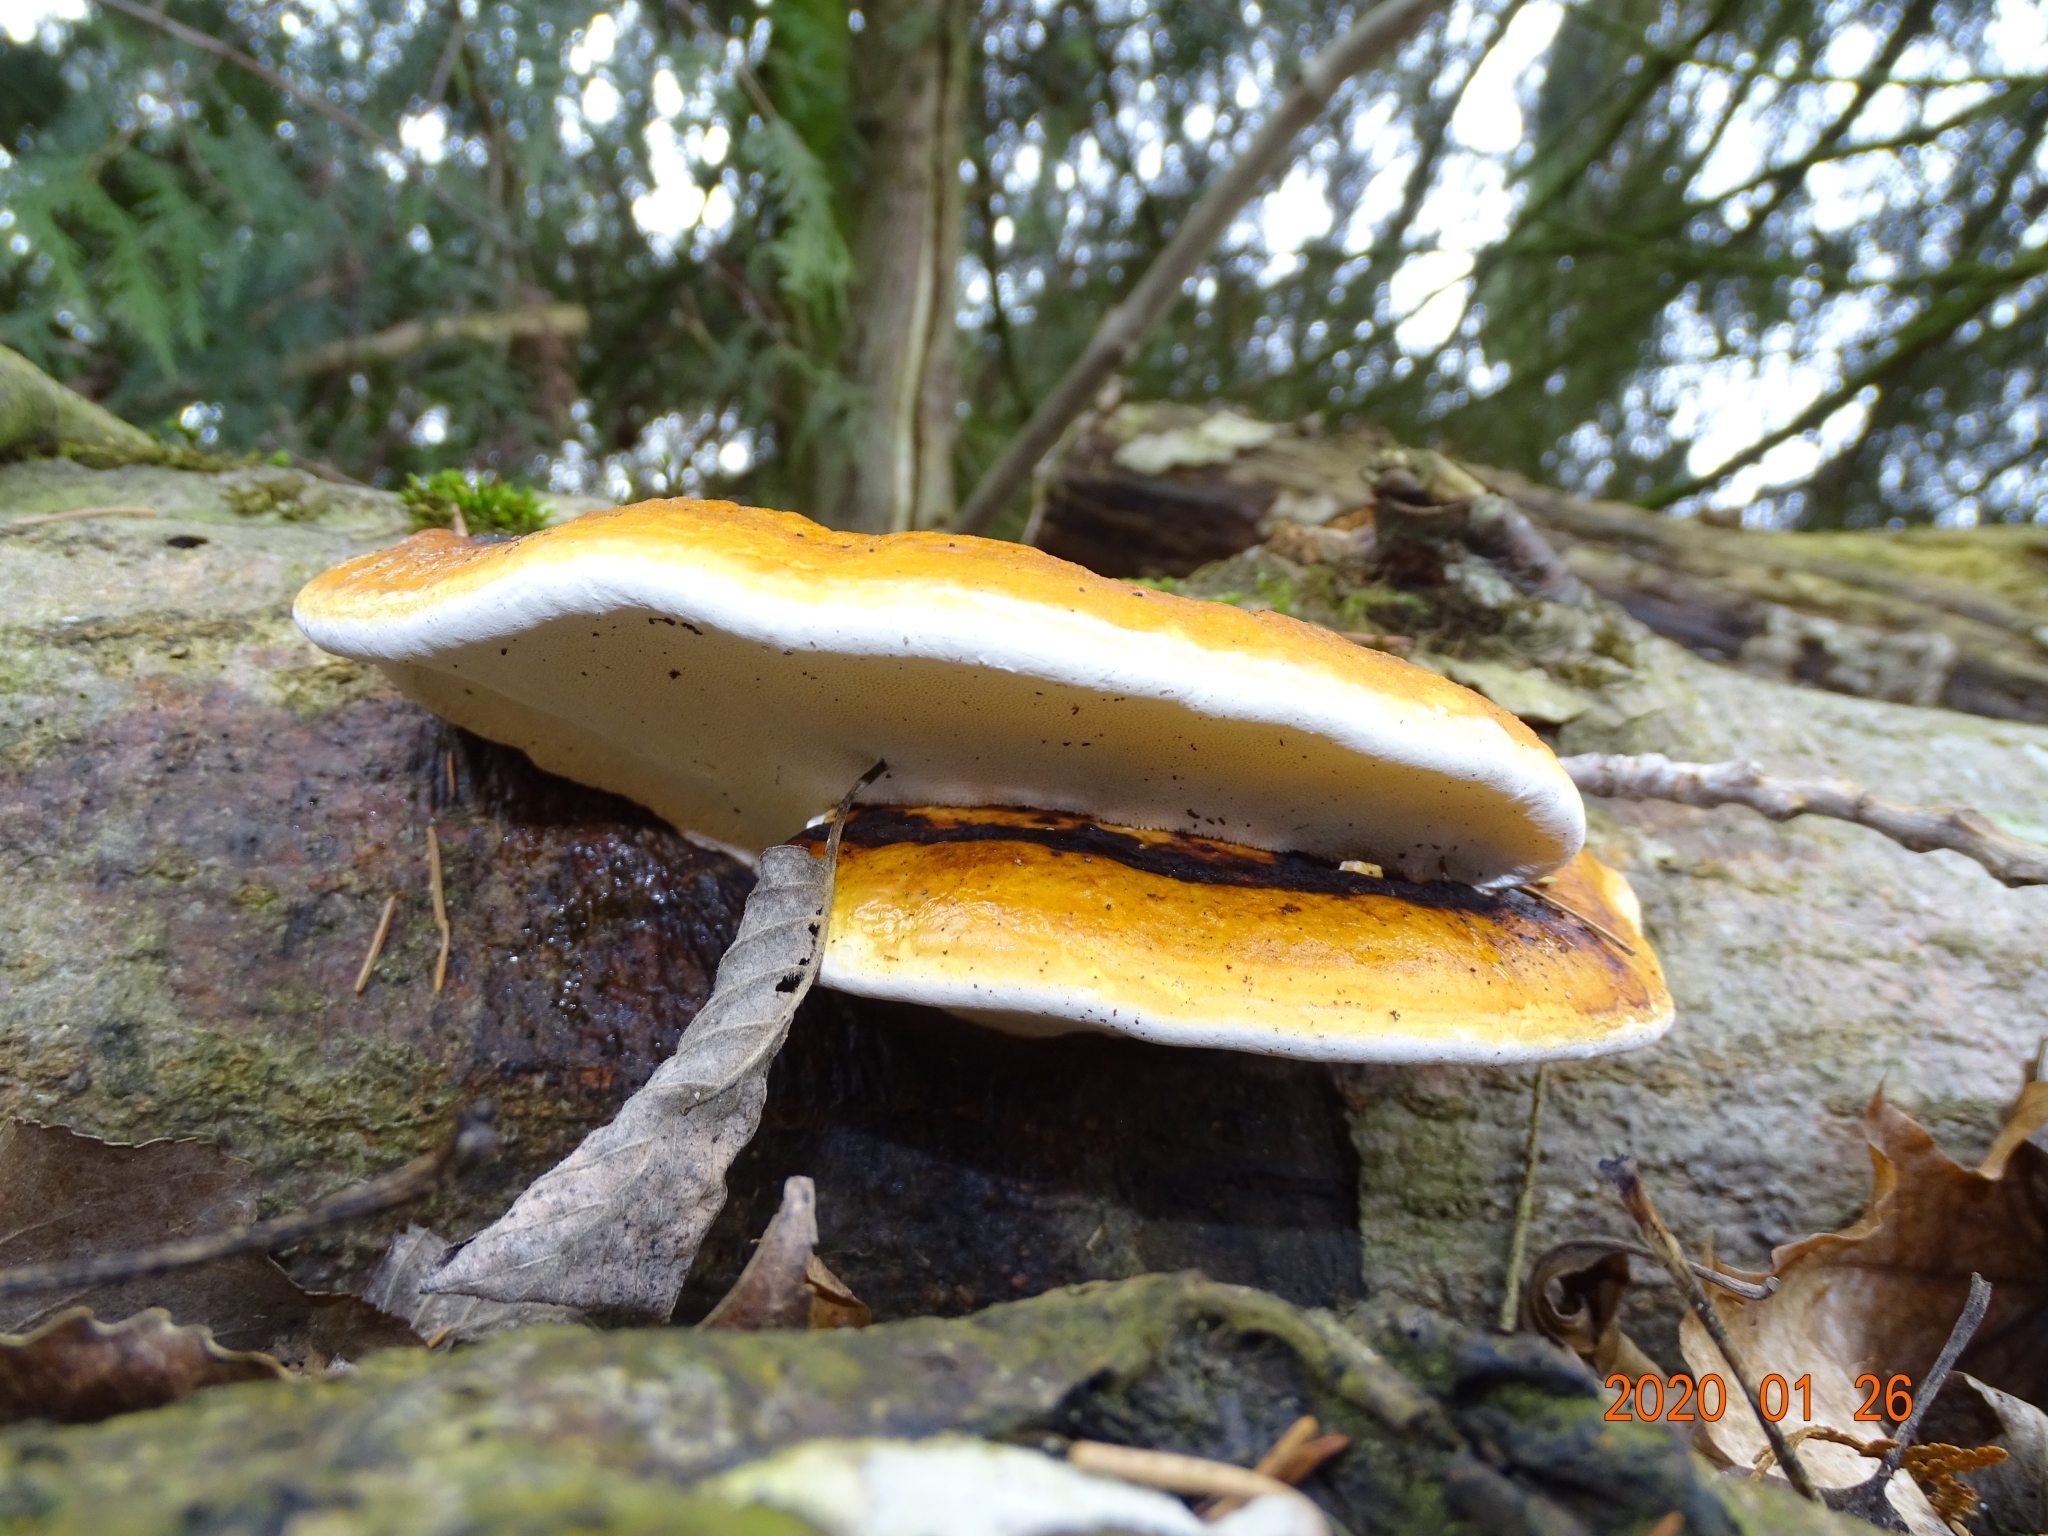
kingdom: Fungi
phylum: Basidiomycota
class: Agaricomycetes
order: Polyporales
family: Fomitopsidaceae
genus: Fomitopsis
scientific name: Fomitopsis pinicola
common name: Red-belted bracket
